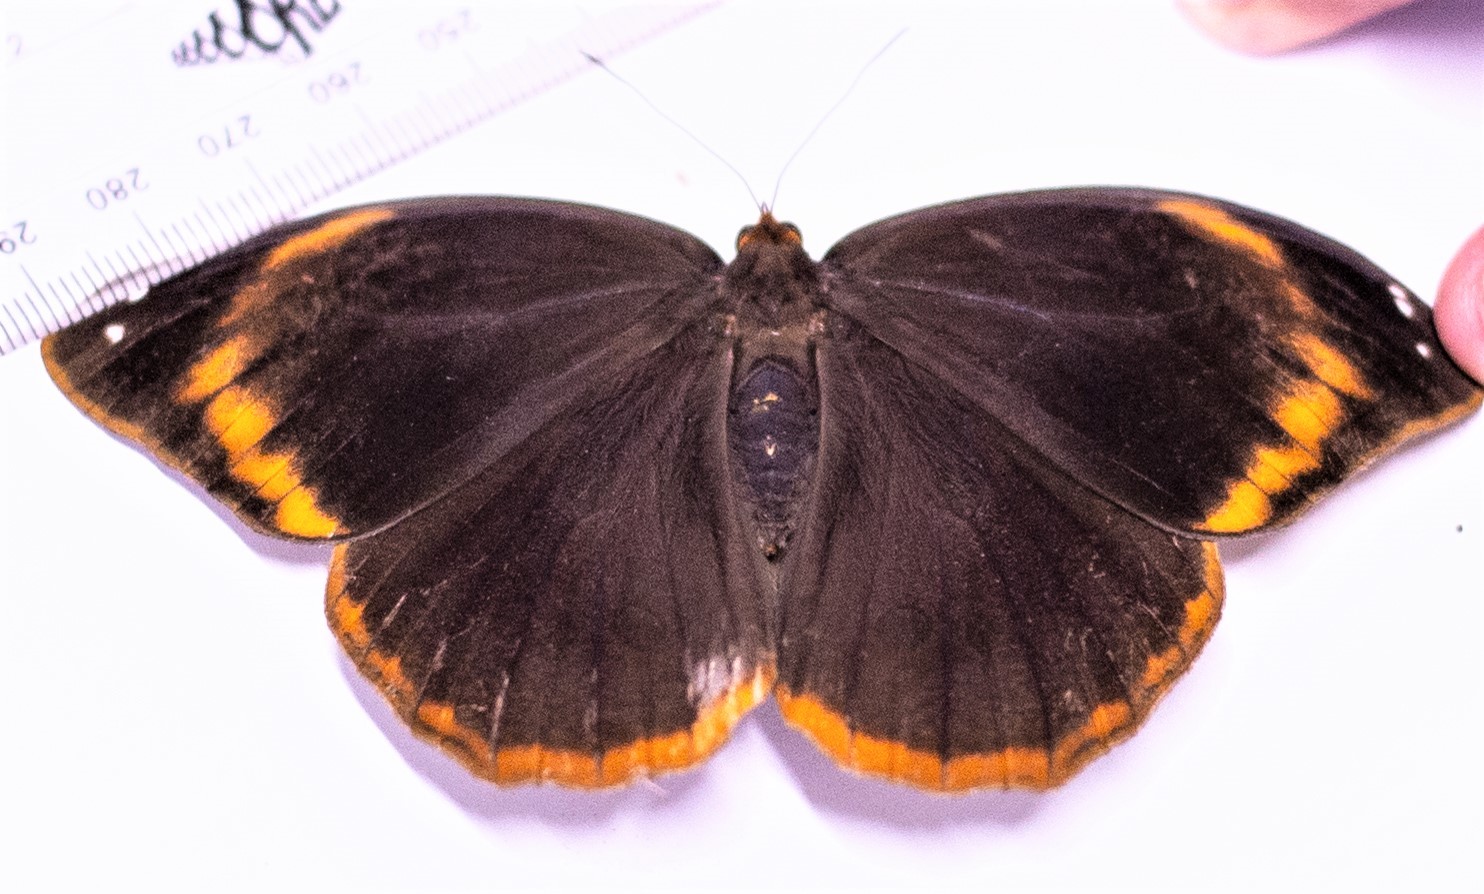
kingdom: Animalia
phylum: Arthropoda
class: Insecta
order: Lepidoptera
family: Nymphalidae
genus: Catoblepia
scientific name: Catoblepia xanthus
